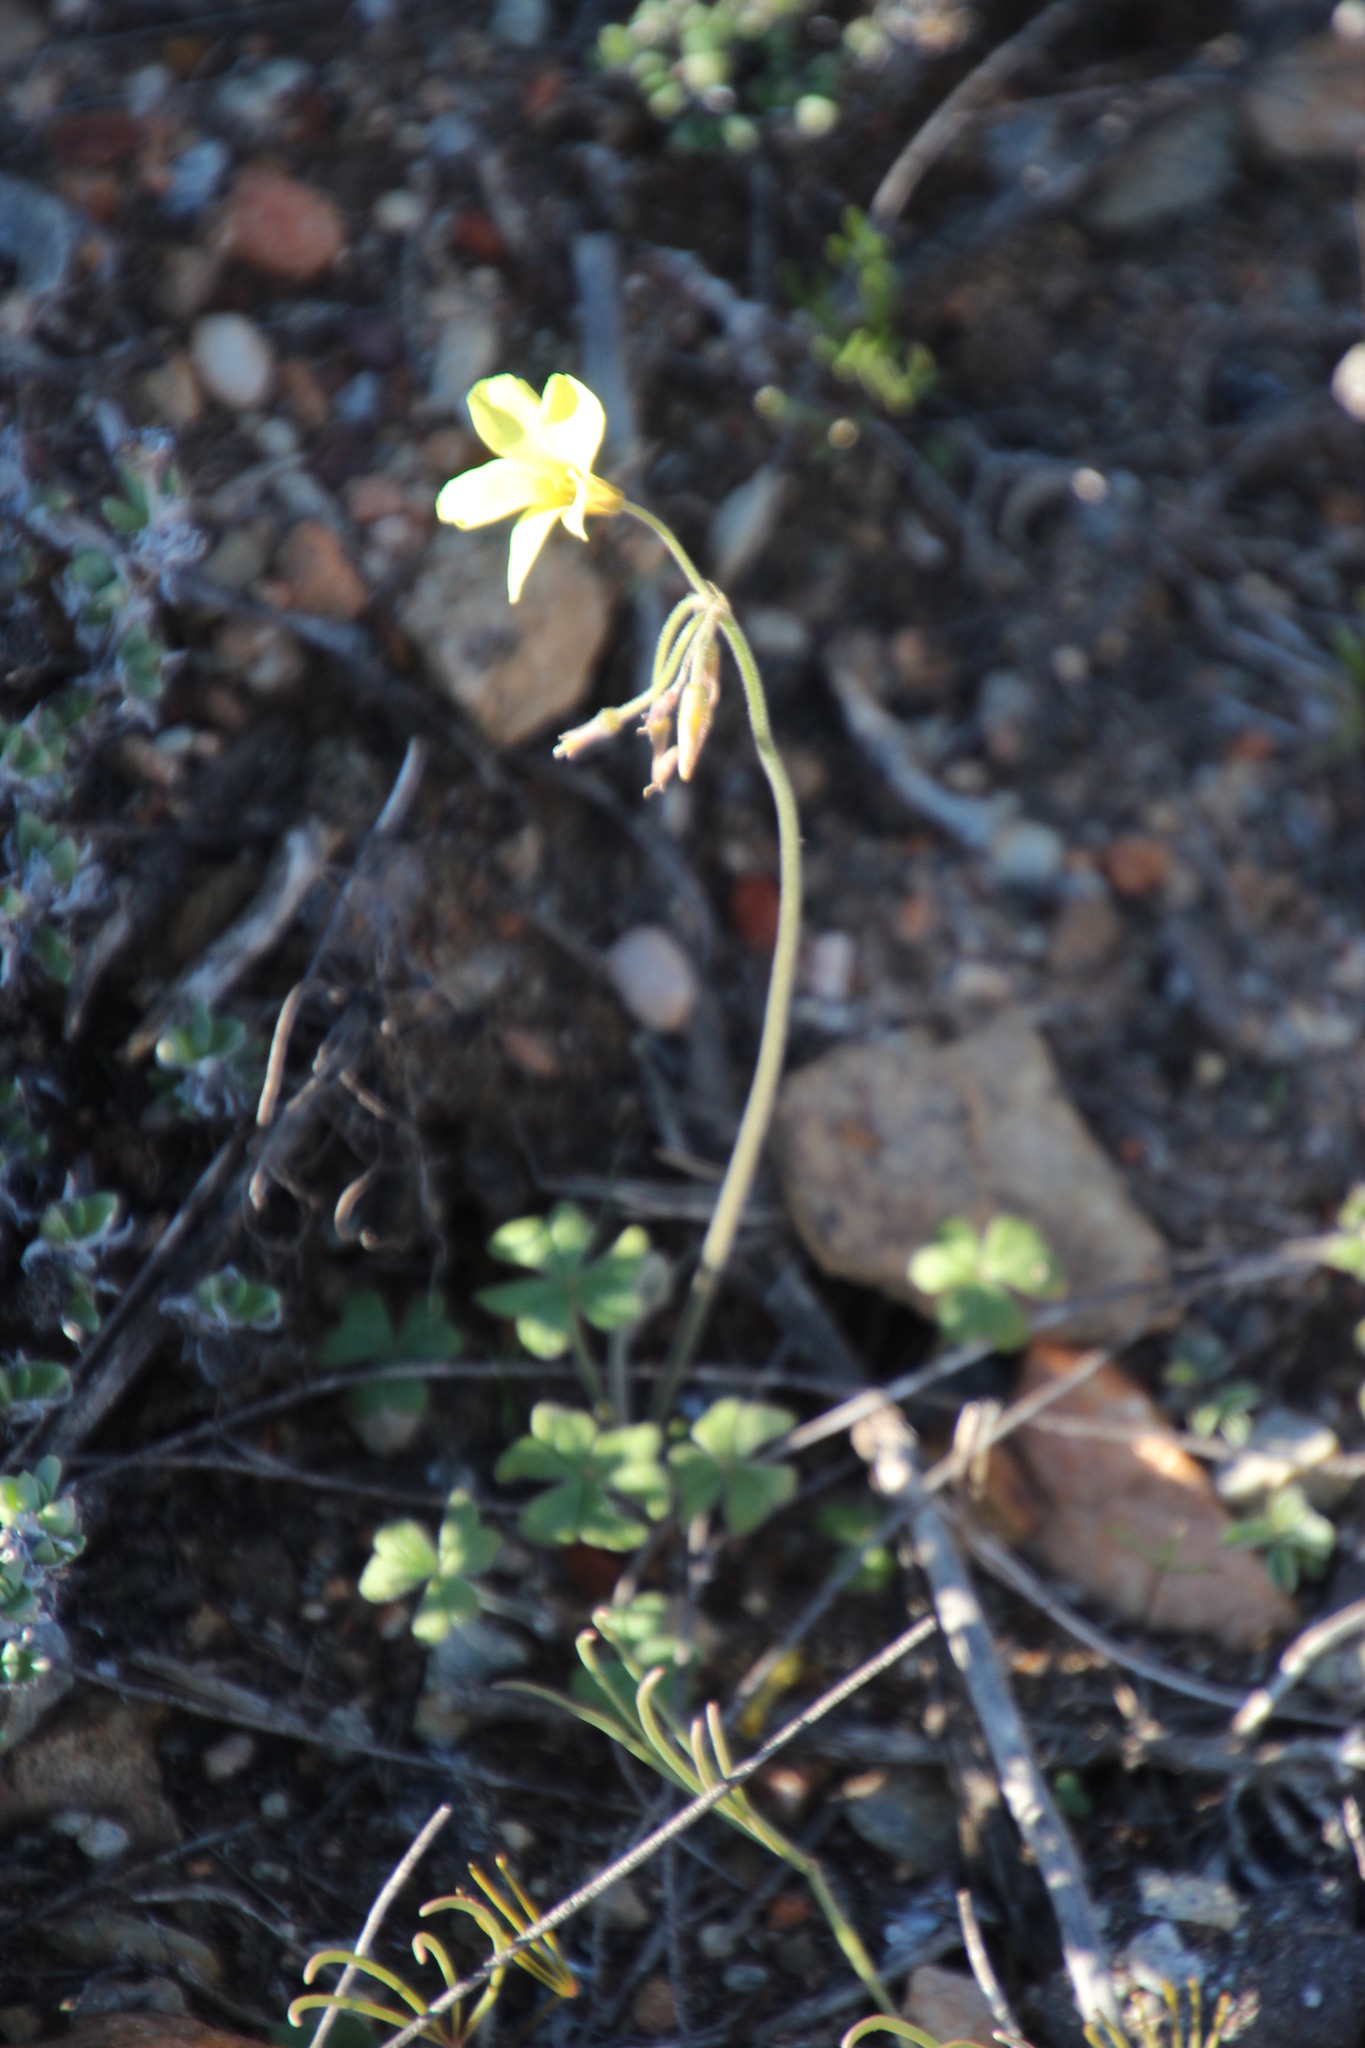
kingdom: Plantae
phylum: Tracheophyta
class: Magnoliopsida
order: Oxalidales
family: Oxalidaceae
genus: Oxalis
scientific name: Oxalis pes-caprae
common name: Bermuda-buttercup
